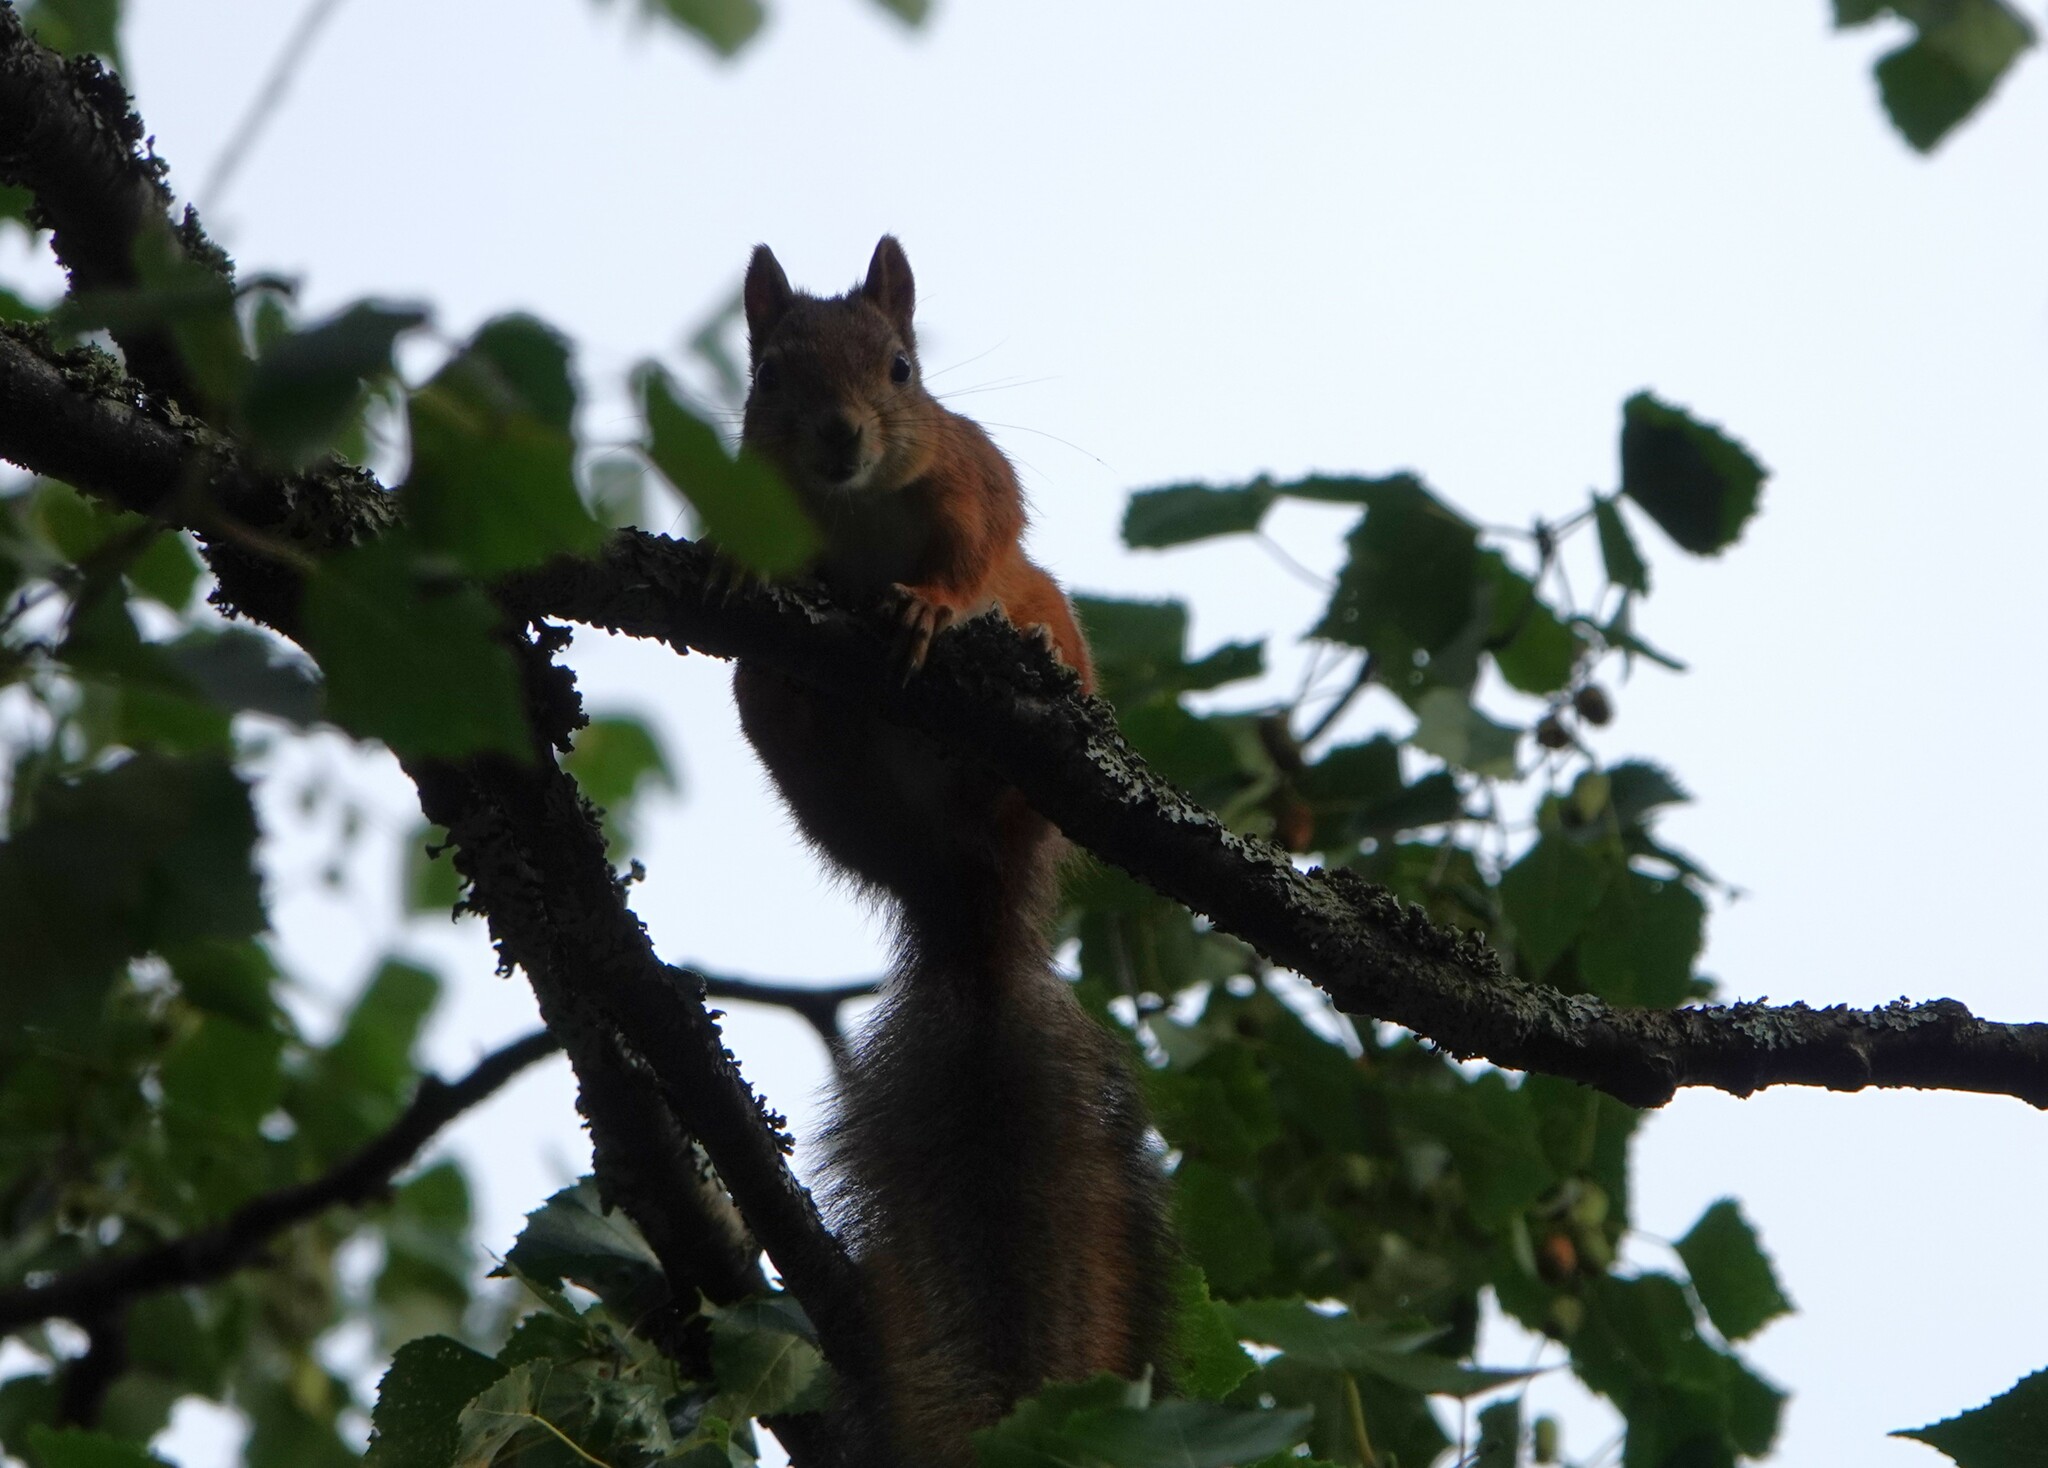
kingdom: Animalia
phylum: Chordata
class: Mammalia
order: Rodentia
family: Sciuridae
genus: Sciurus
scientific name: Sciurus vulgaris
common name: Eurasian red squirrel
